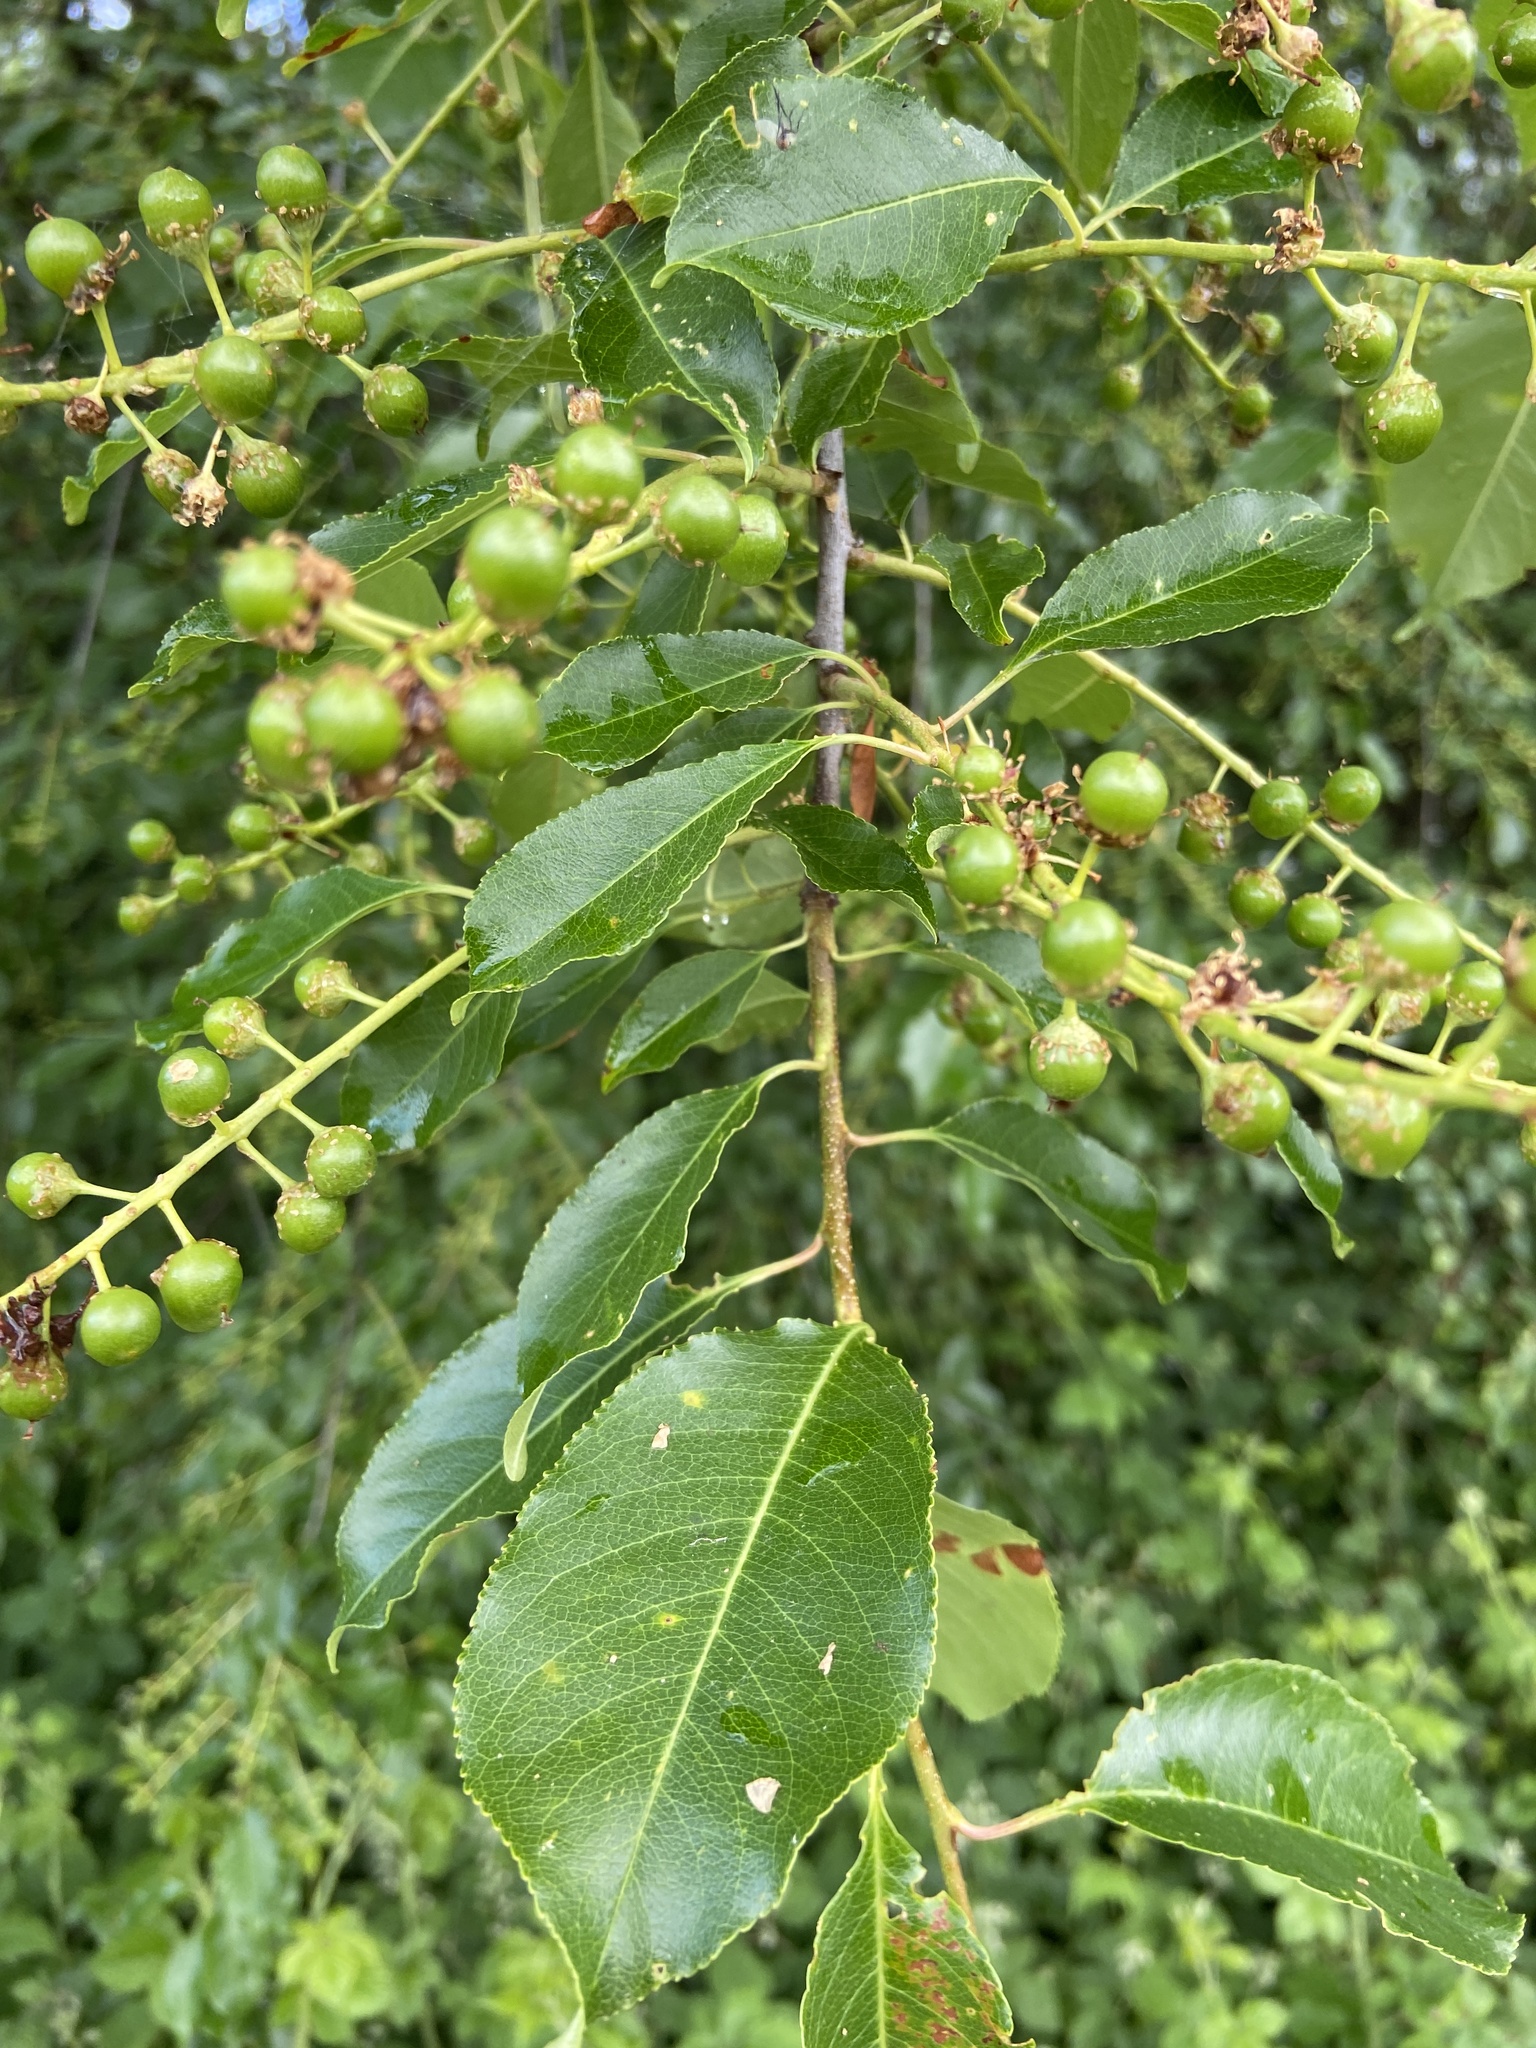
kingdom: Plantae
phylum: Tracheophyta
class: Magnoliopsida
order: Rosales
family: Rosaceae
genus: Prunus
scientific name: Prunus serotina
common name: Black cherry
